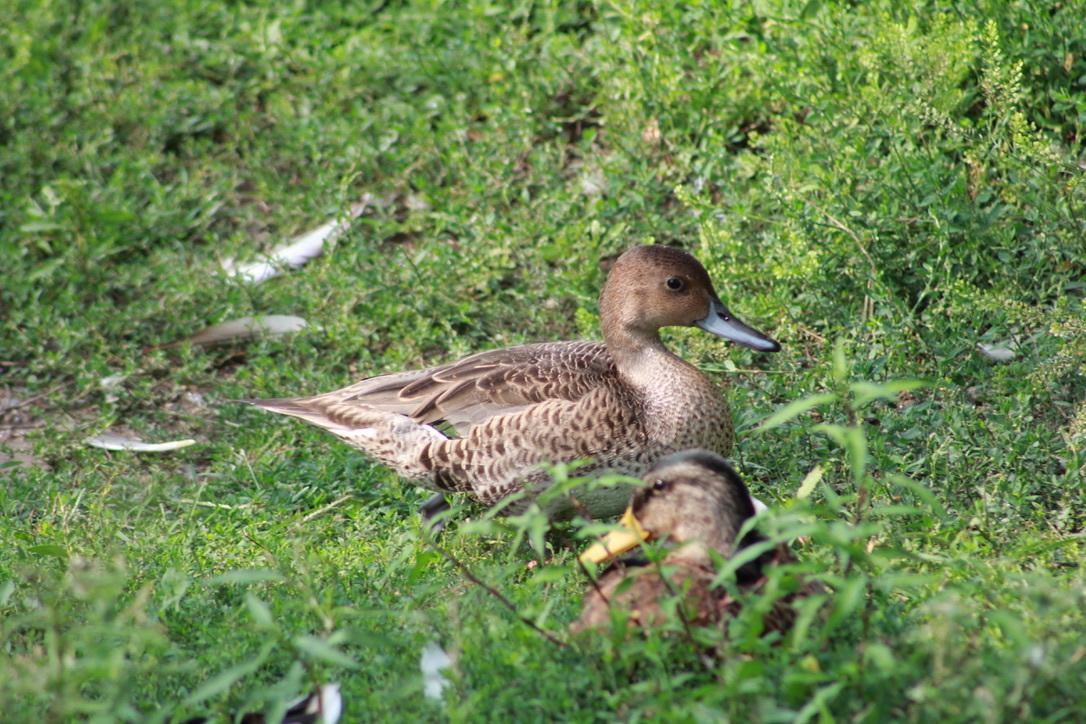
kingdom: Animalia
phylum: Chordata
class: Aves
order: Anseriformes
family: Anatidae
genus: Anas
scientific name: Anas acuta
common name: Northern pintail
